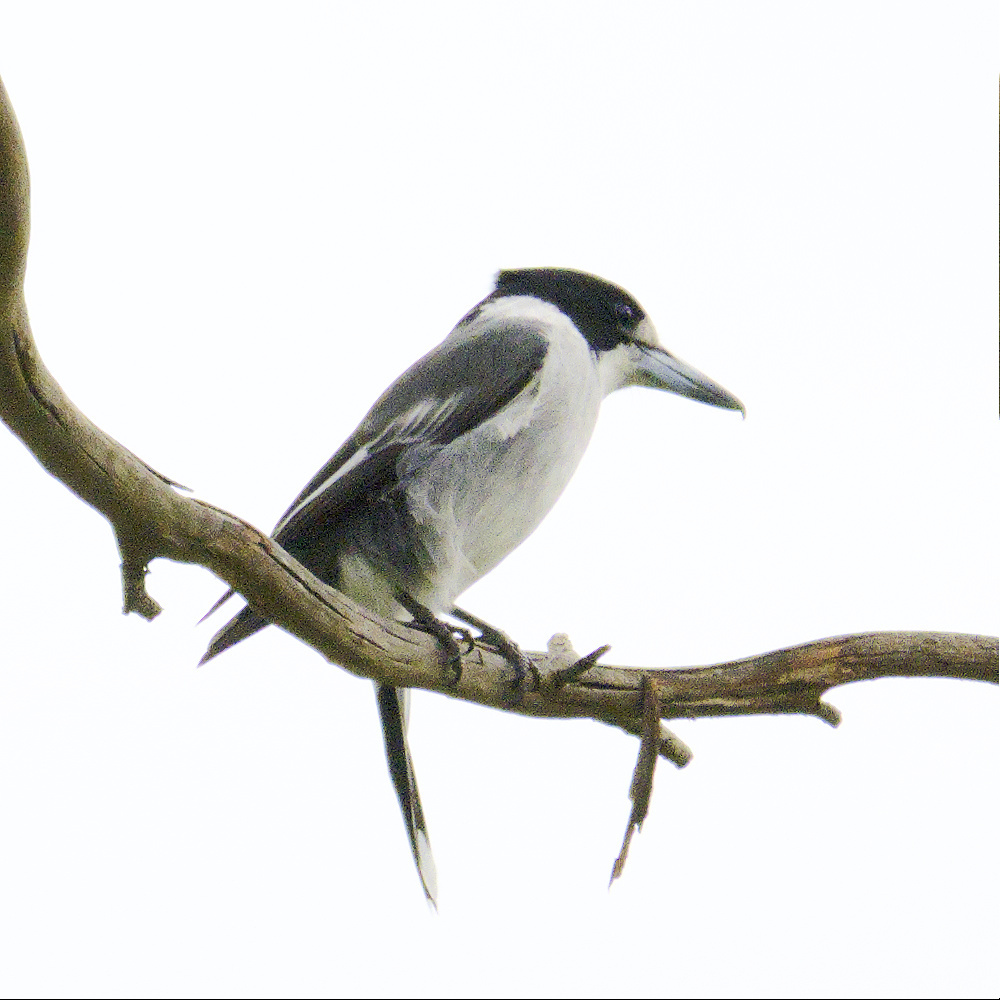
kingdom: Animalia
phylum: Chordata
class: Aves
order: Passeriformes
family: Cracticidae
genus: Cracticus
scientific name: Cracticus torquatus
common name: Grey butcherbird
